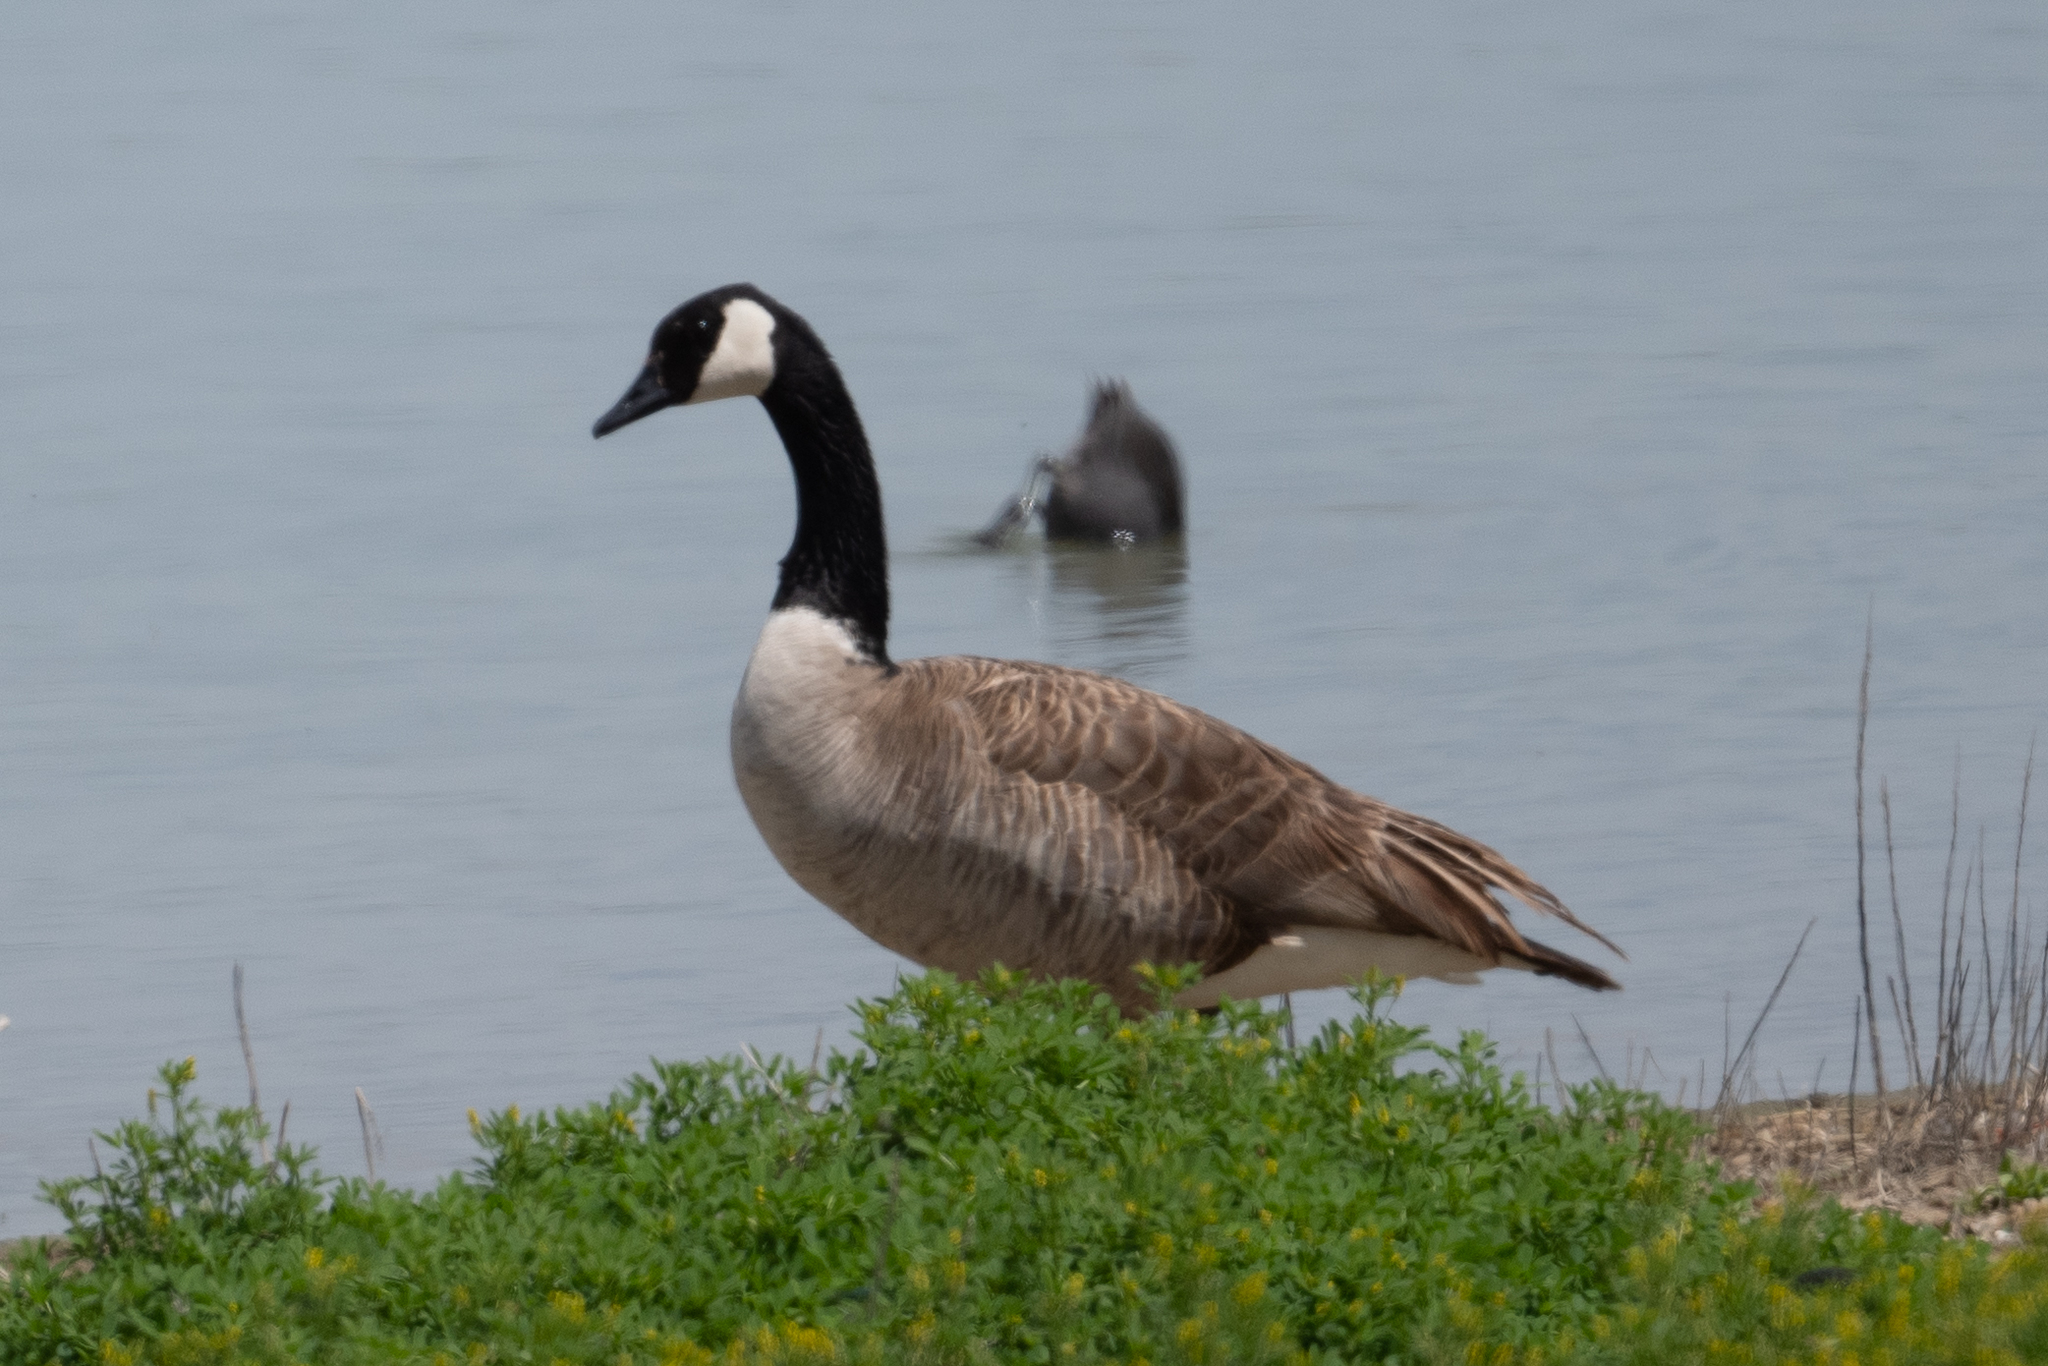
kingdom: Animalia
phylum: Chordata
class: Aves
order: Anseriformes
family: Anatidae
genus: Branta
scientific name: Branta canadensis
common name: Canada goose
